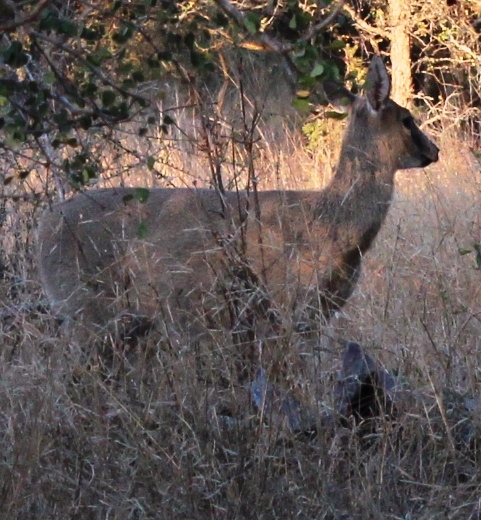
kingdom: Animalia
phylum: Chordata
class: Mammalia
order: Artiodactyla
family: Bovidae
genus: Sylvicapra
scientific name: Sylvicapra grimmia
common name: Bush duiker
